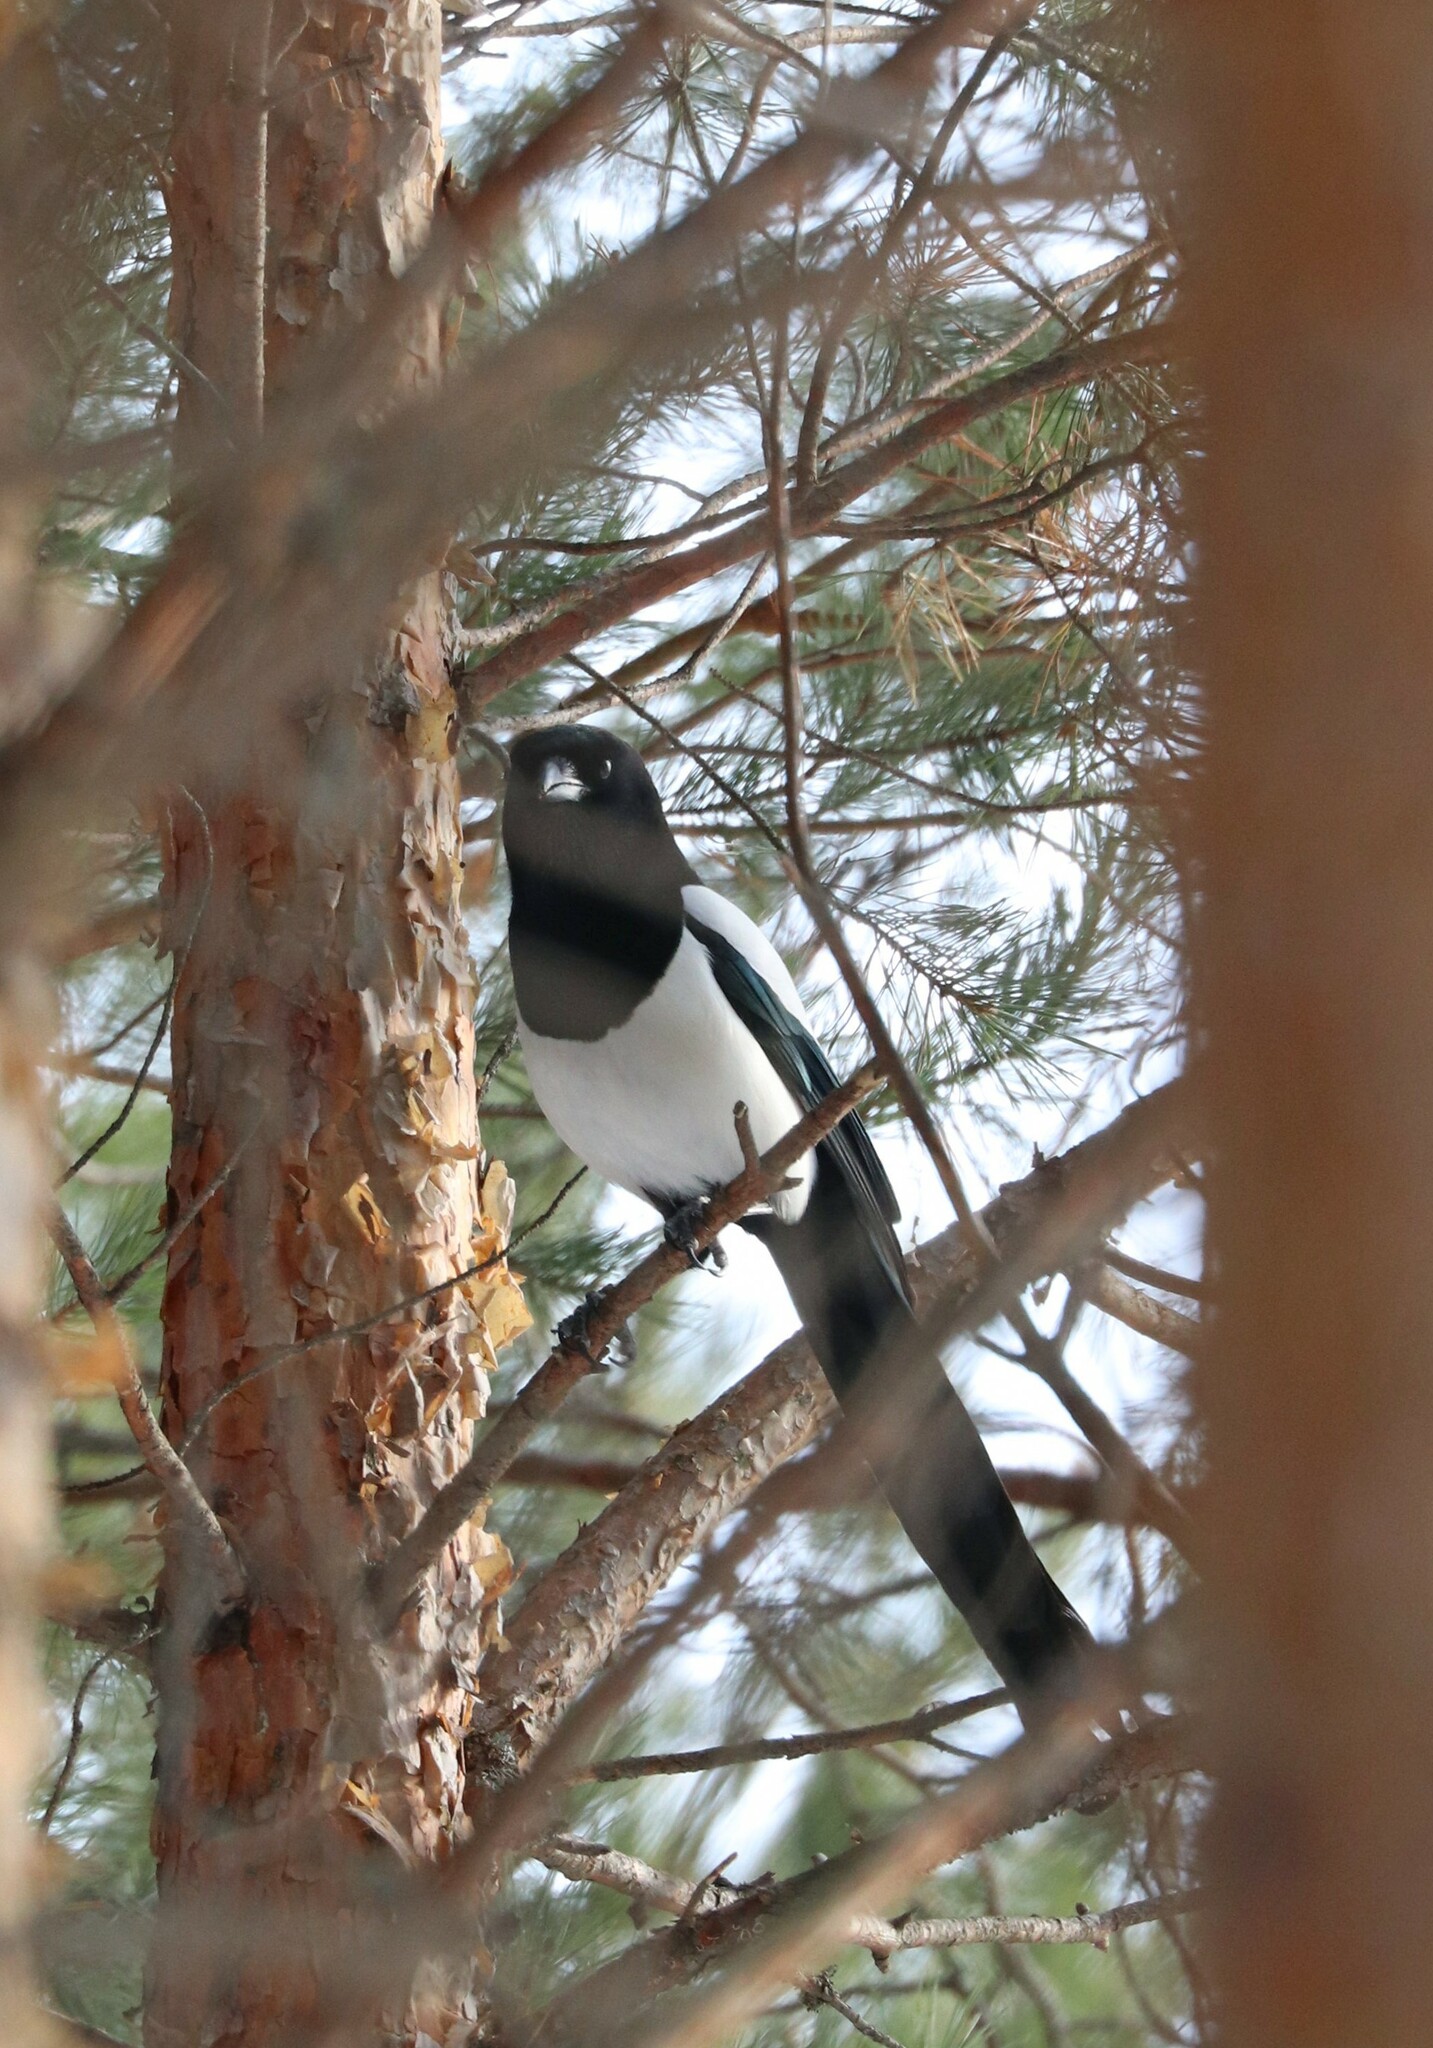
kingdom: Animalia
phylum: Chordata
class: Aves
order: Passeriformes
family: Corvidae
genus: Pica
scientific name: Pica pica
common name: Eurasian magpie
